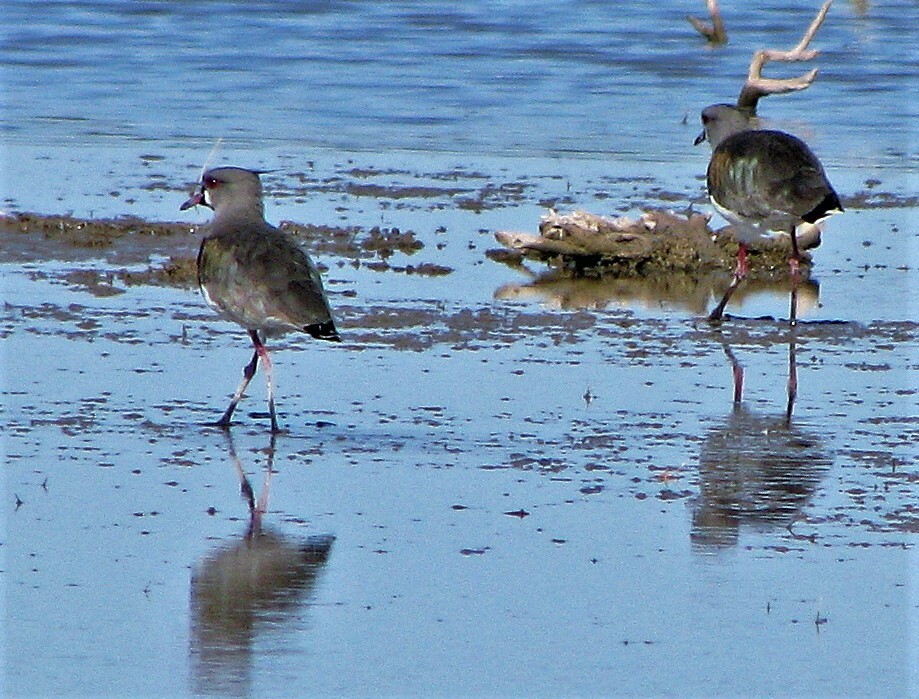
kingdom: Animalia
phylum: Chordata
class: Aves
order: Charadriiformes
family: Charadriidae
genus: Vanellus
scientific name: Vanellus chilensis
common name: Southern lapwing
